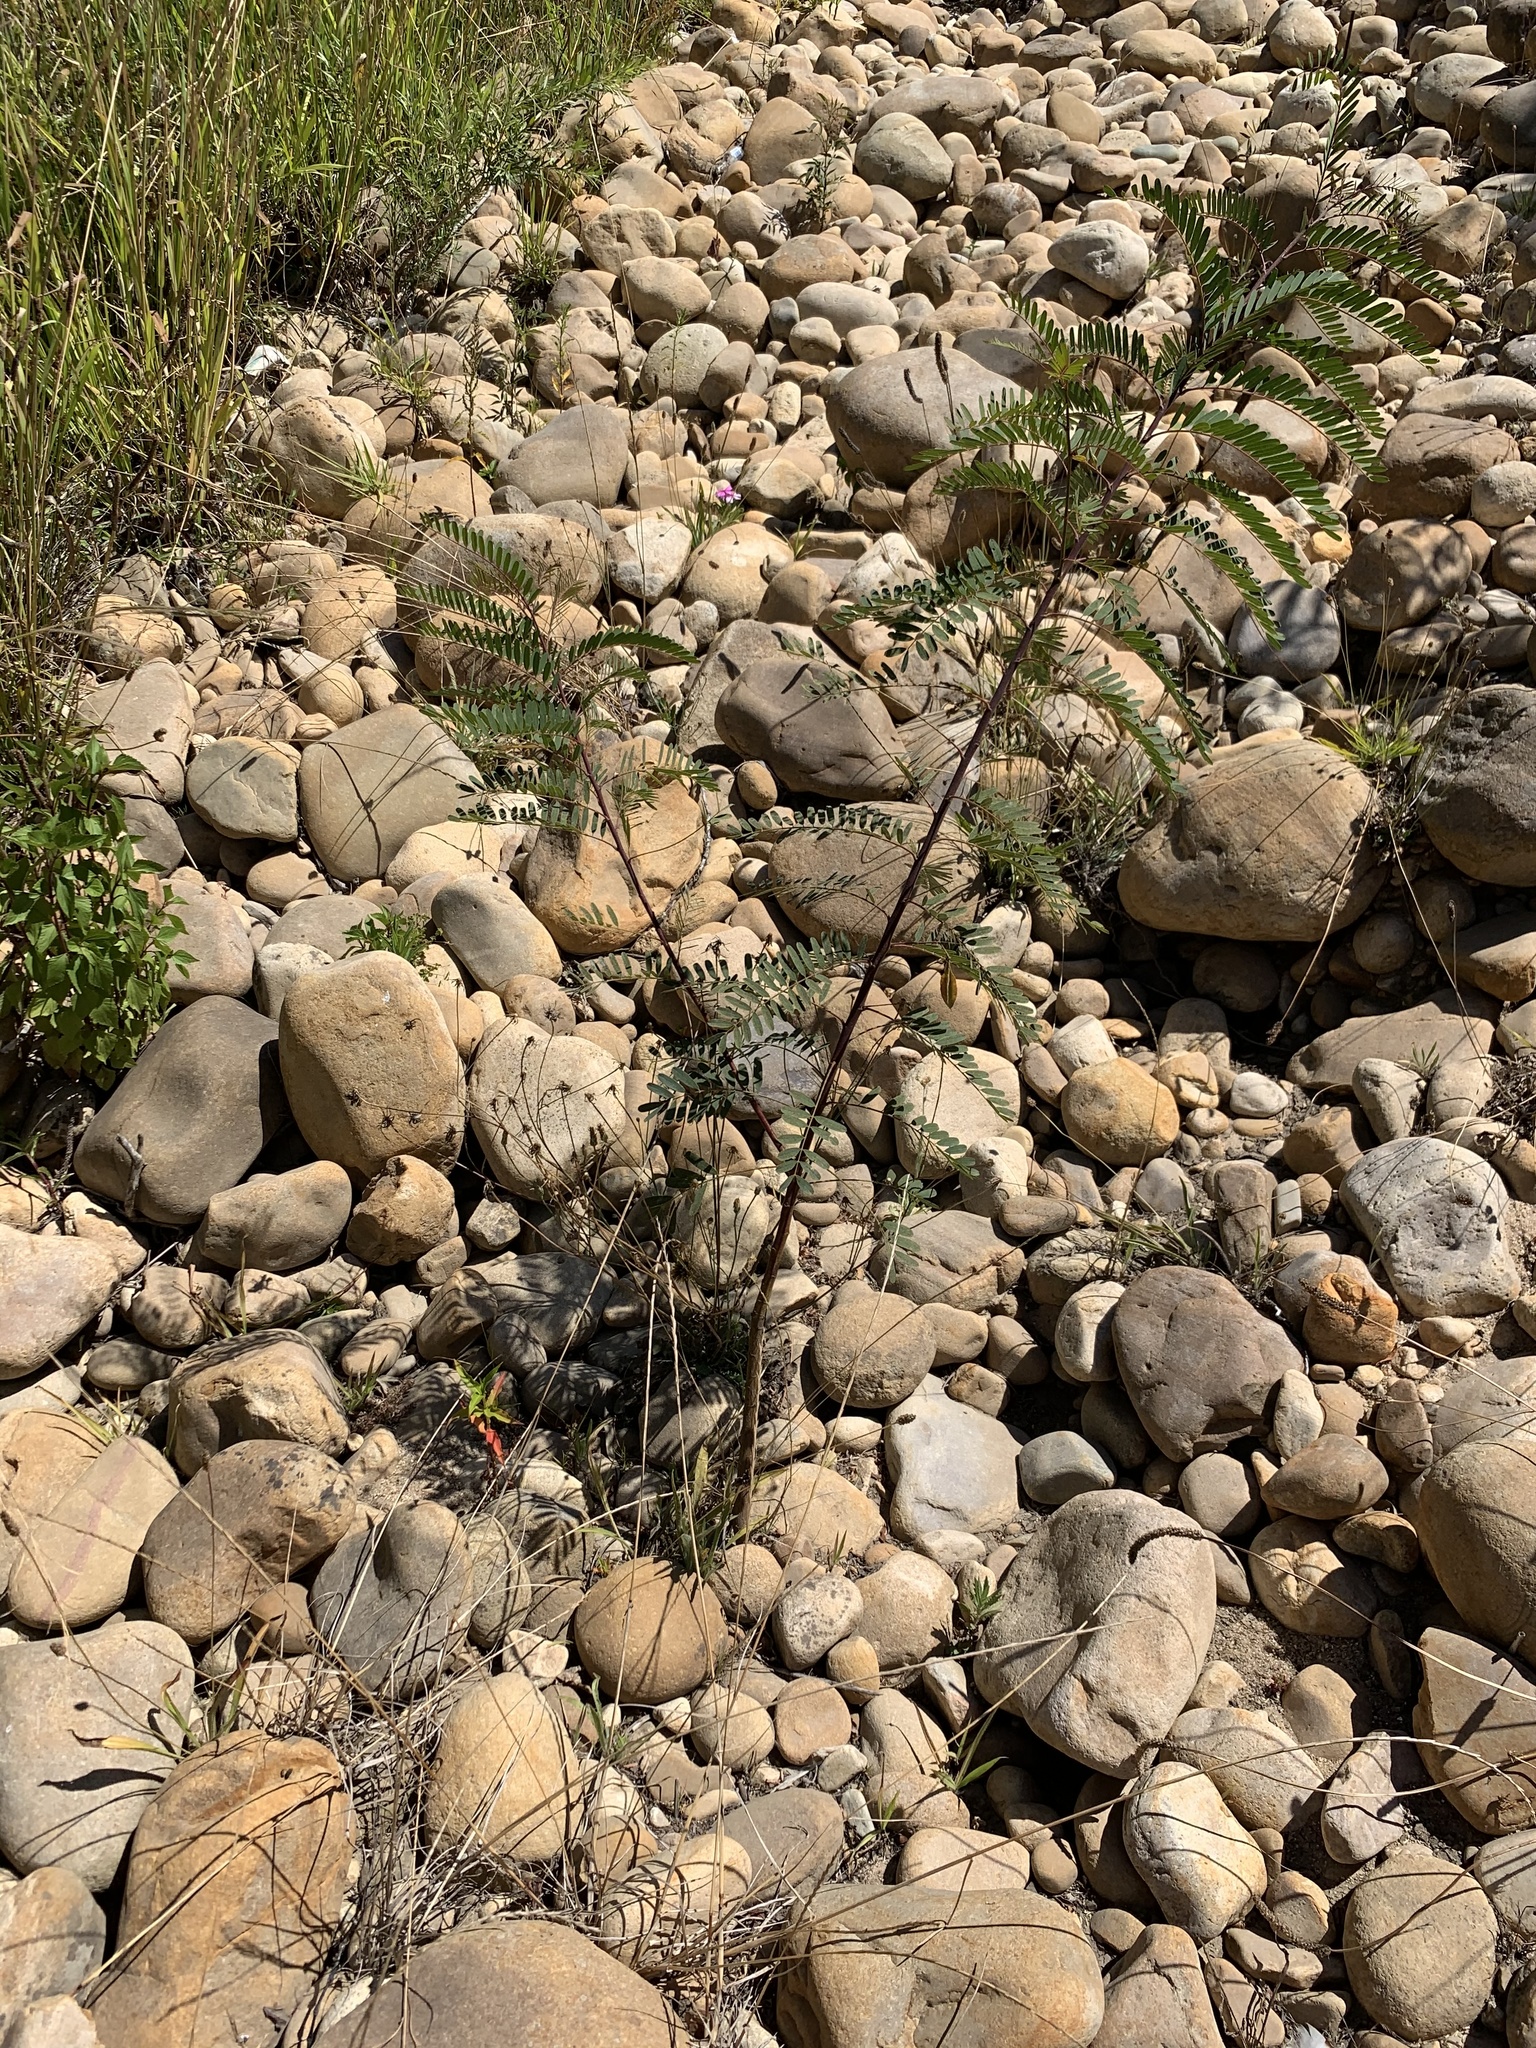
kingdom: Plantae
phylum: Tracheophyta
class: Magnoliopsida
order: Fabales
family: Fabaceae
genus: Sesbania
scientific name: Sesbania punicea
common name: Rattlebox
